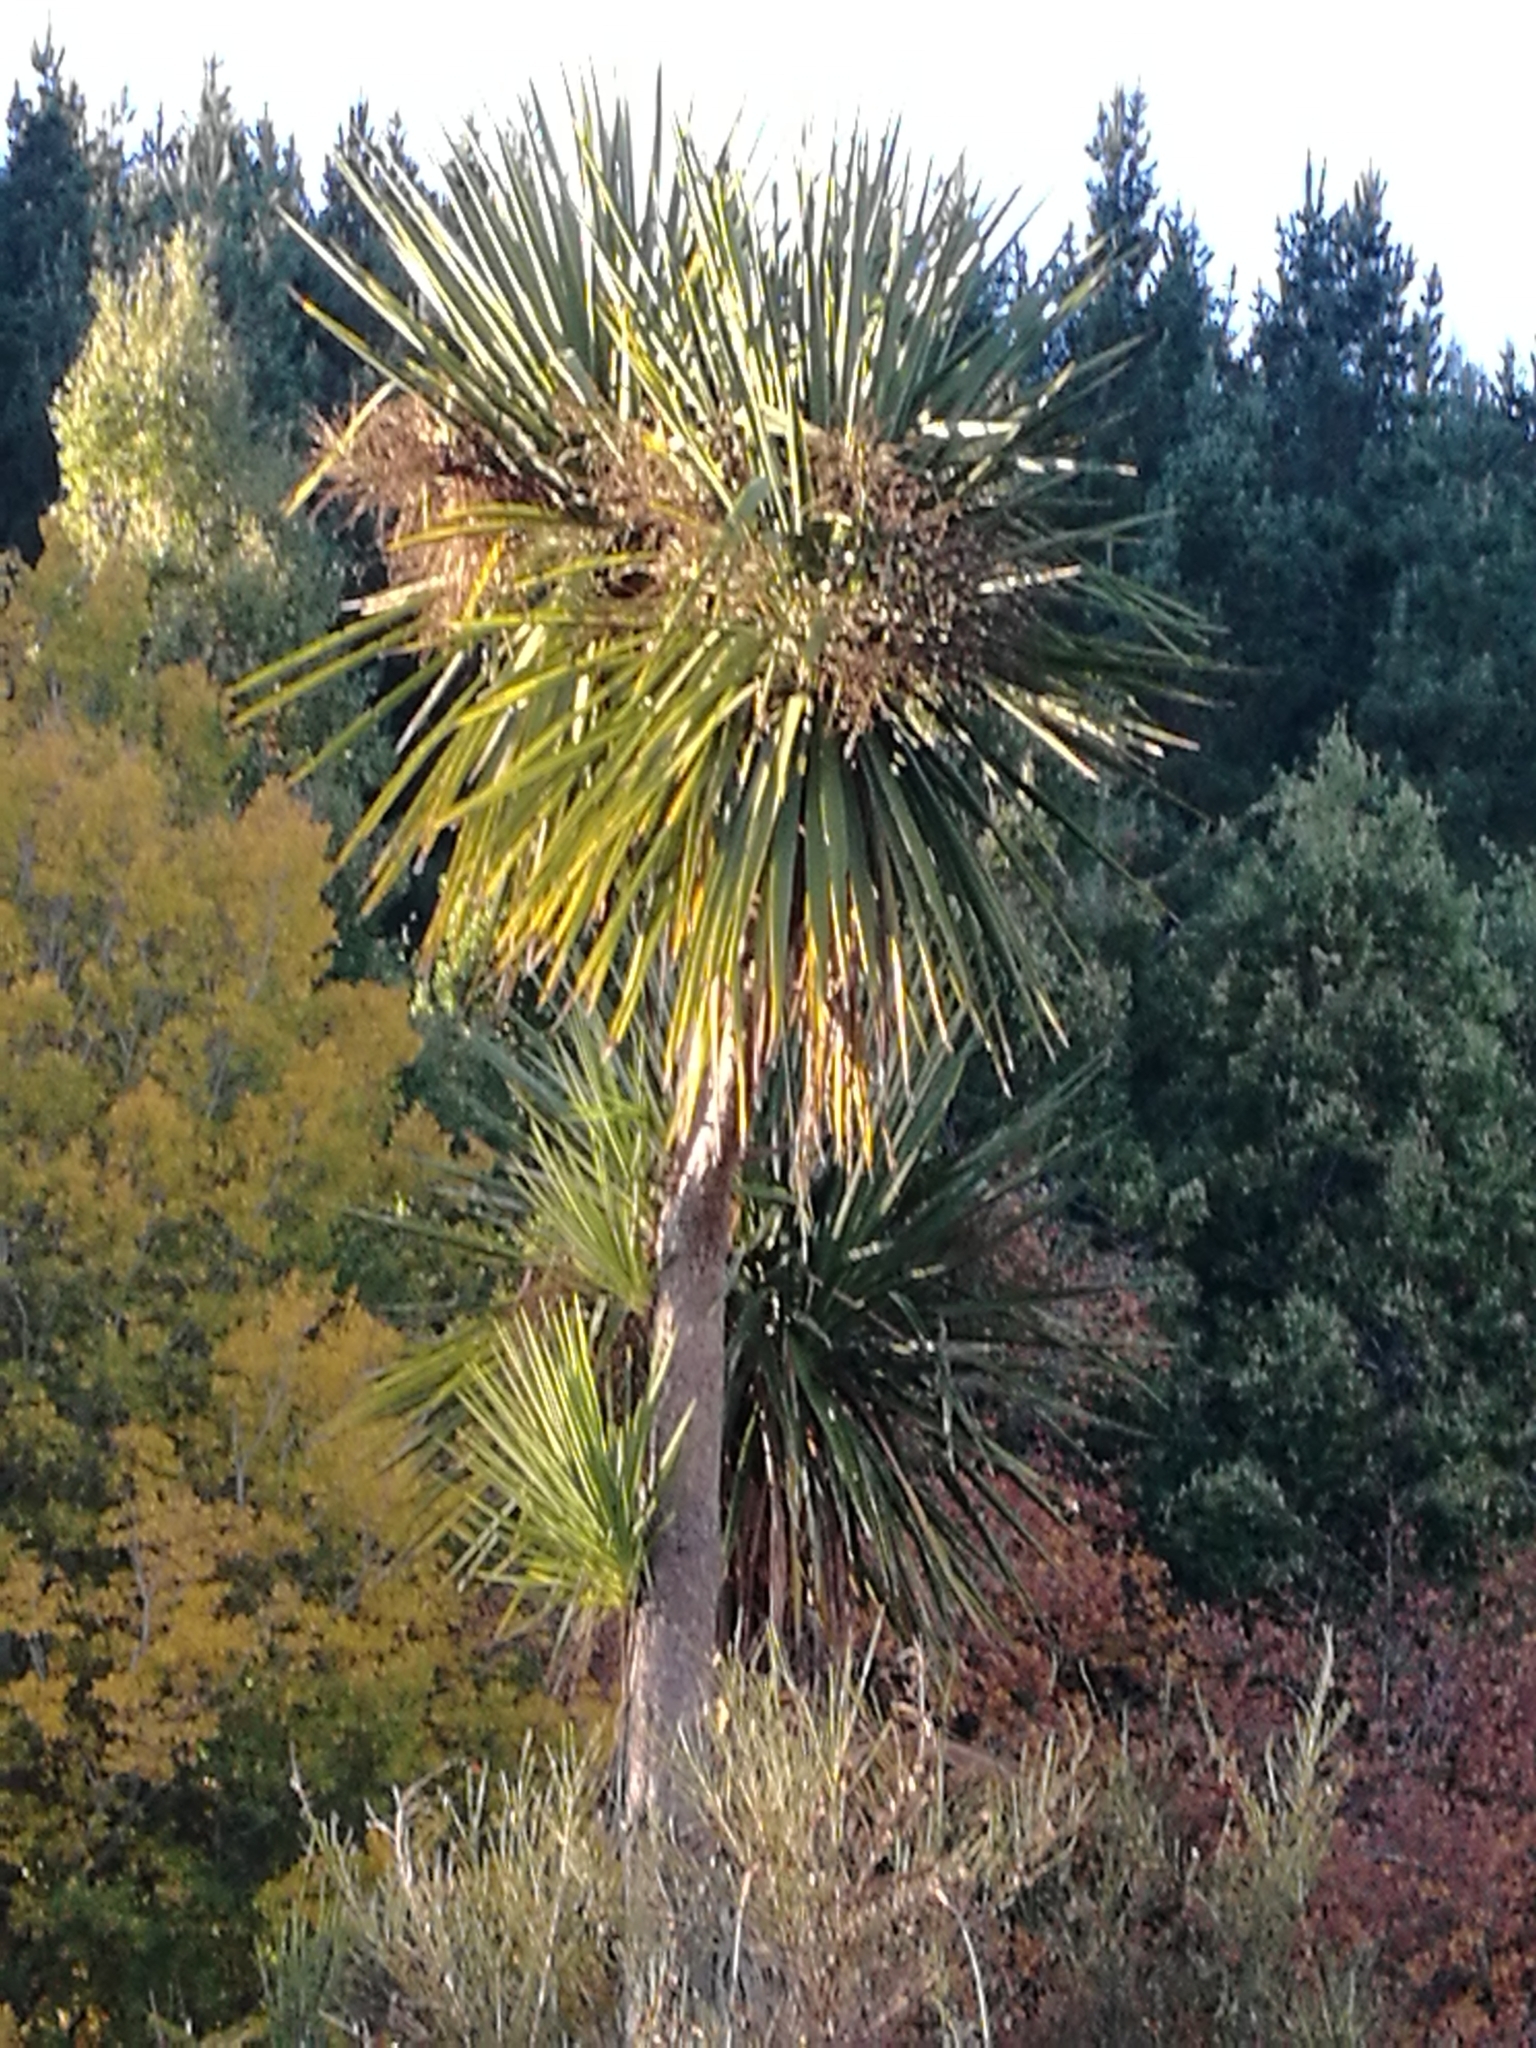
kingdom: Plantae
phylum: Tracheophyta
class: Liliopsida
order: Asparagales
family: Asparagaceae
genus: Cordyline
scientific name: Cordyline australis
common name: Cabbage-palm
